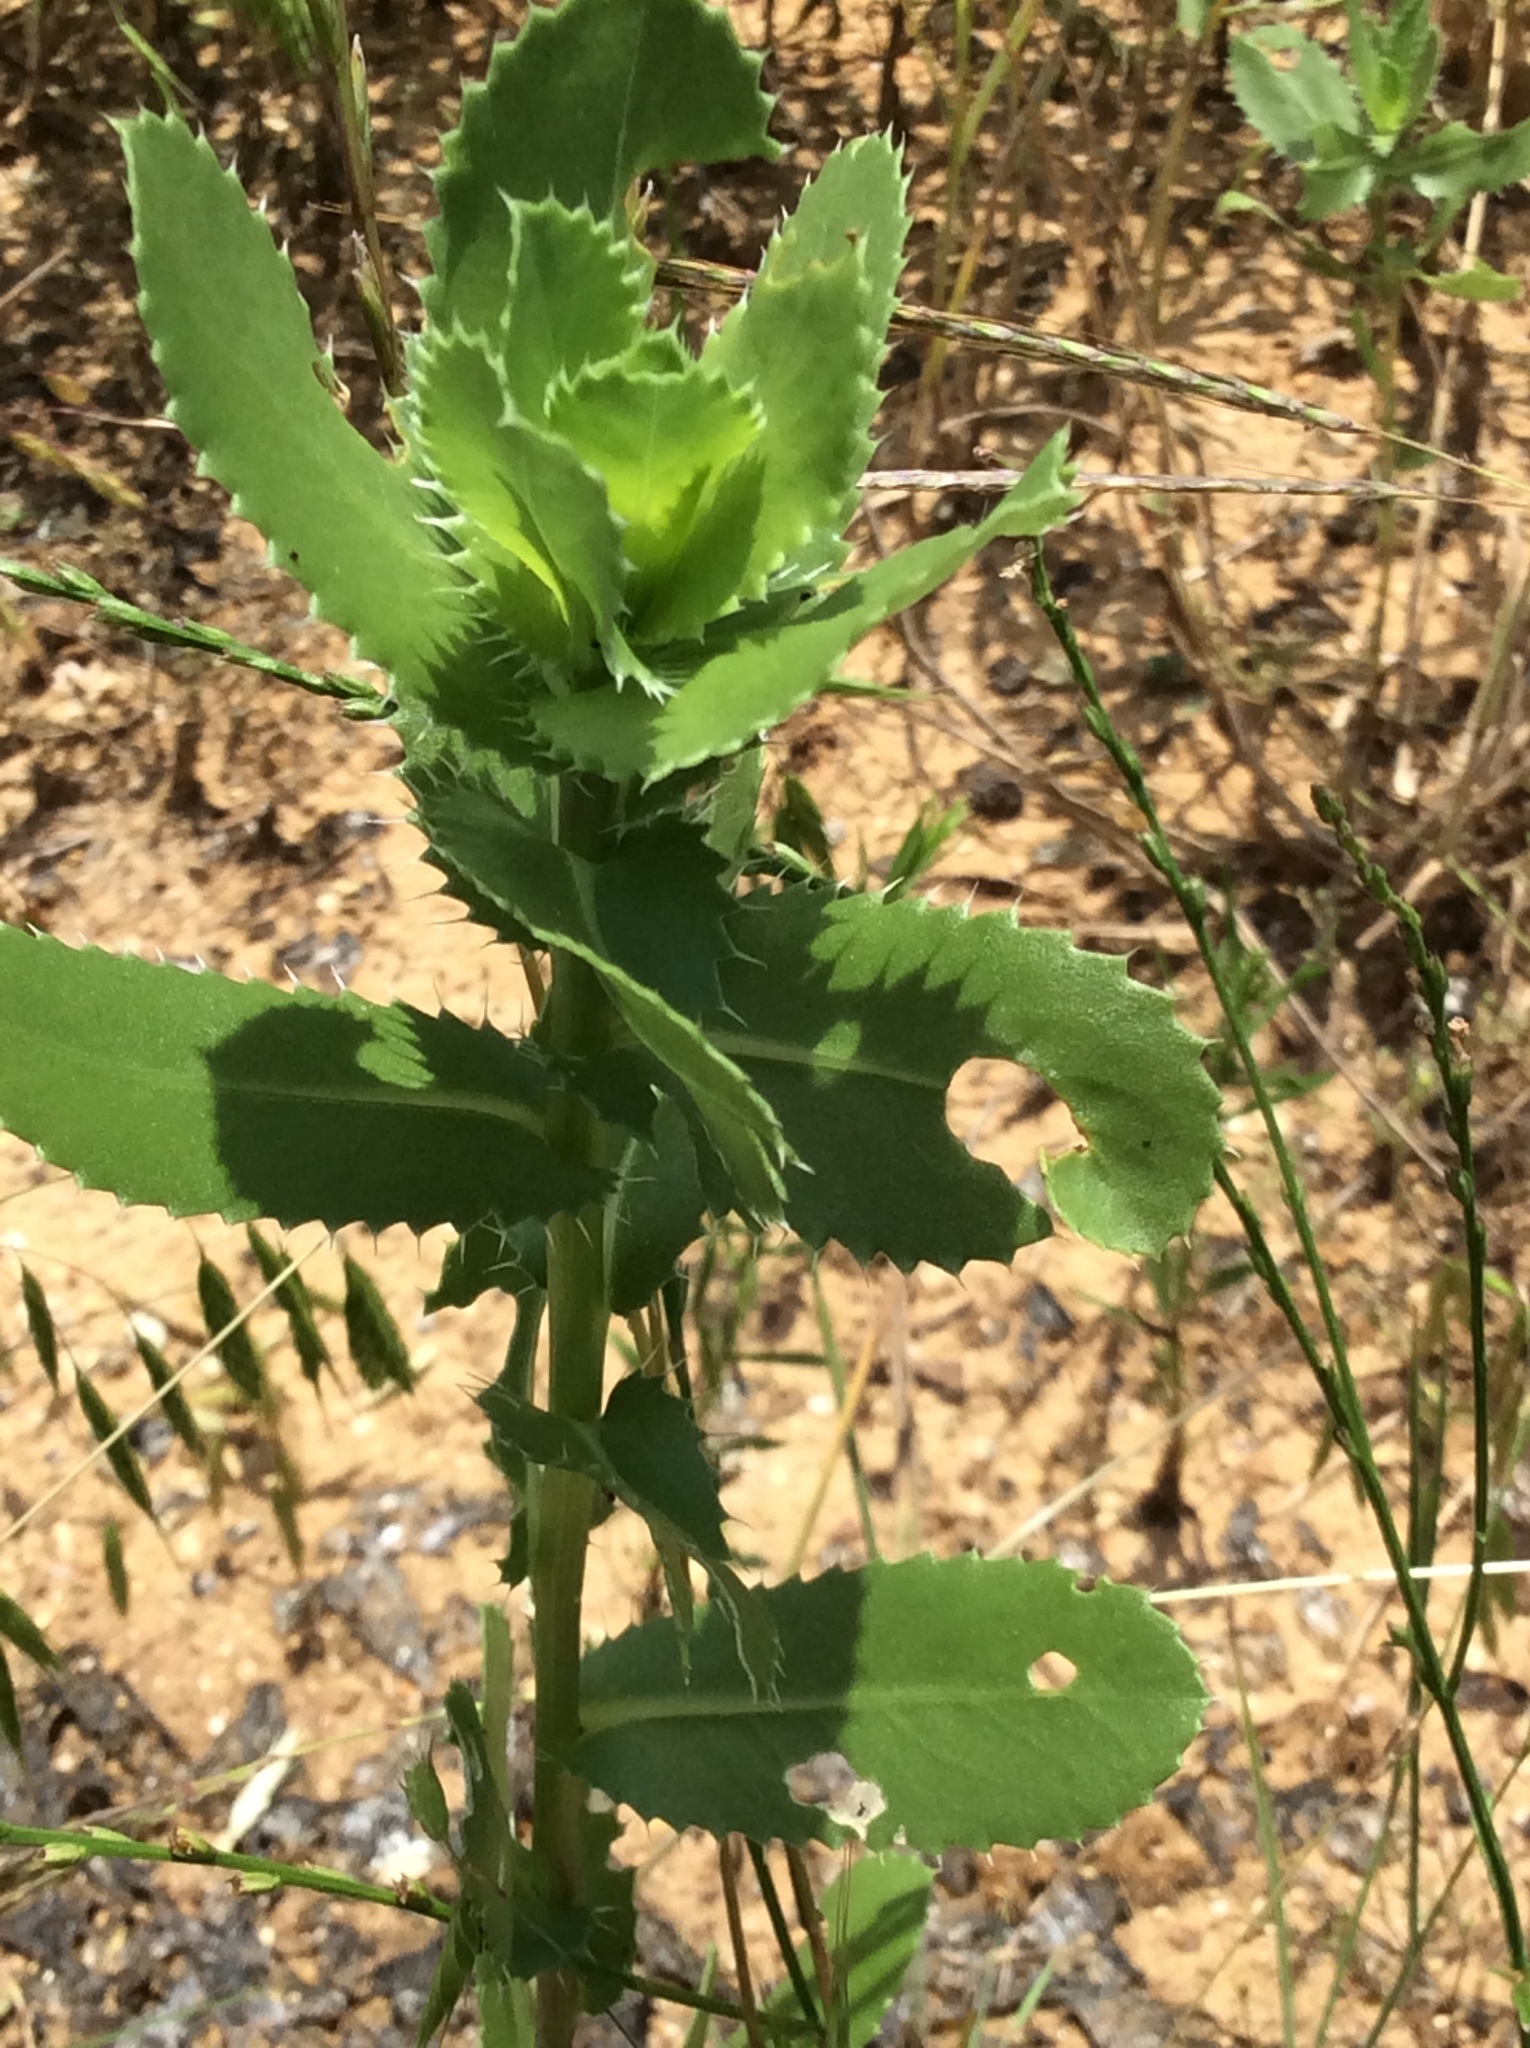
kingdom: Plantae
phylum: Tracheophyta
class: Magnoliopsida
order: Asterales
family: Asteraceae
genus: Grindelia
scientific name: Grindelia ciliata
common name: Goldenweed
